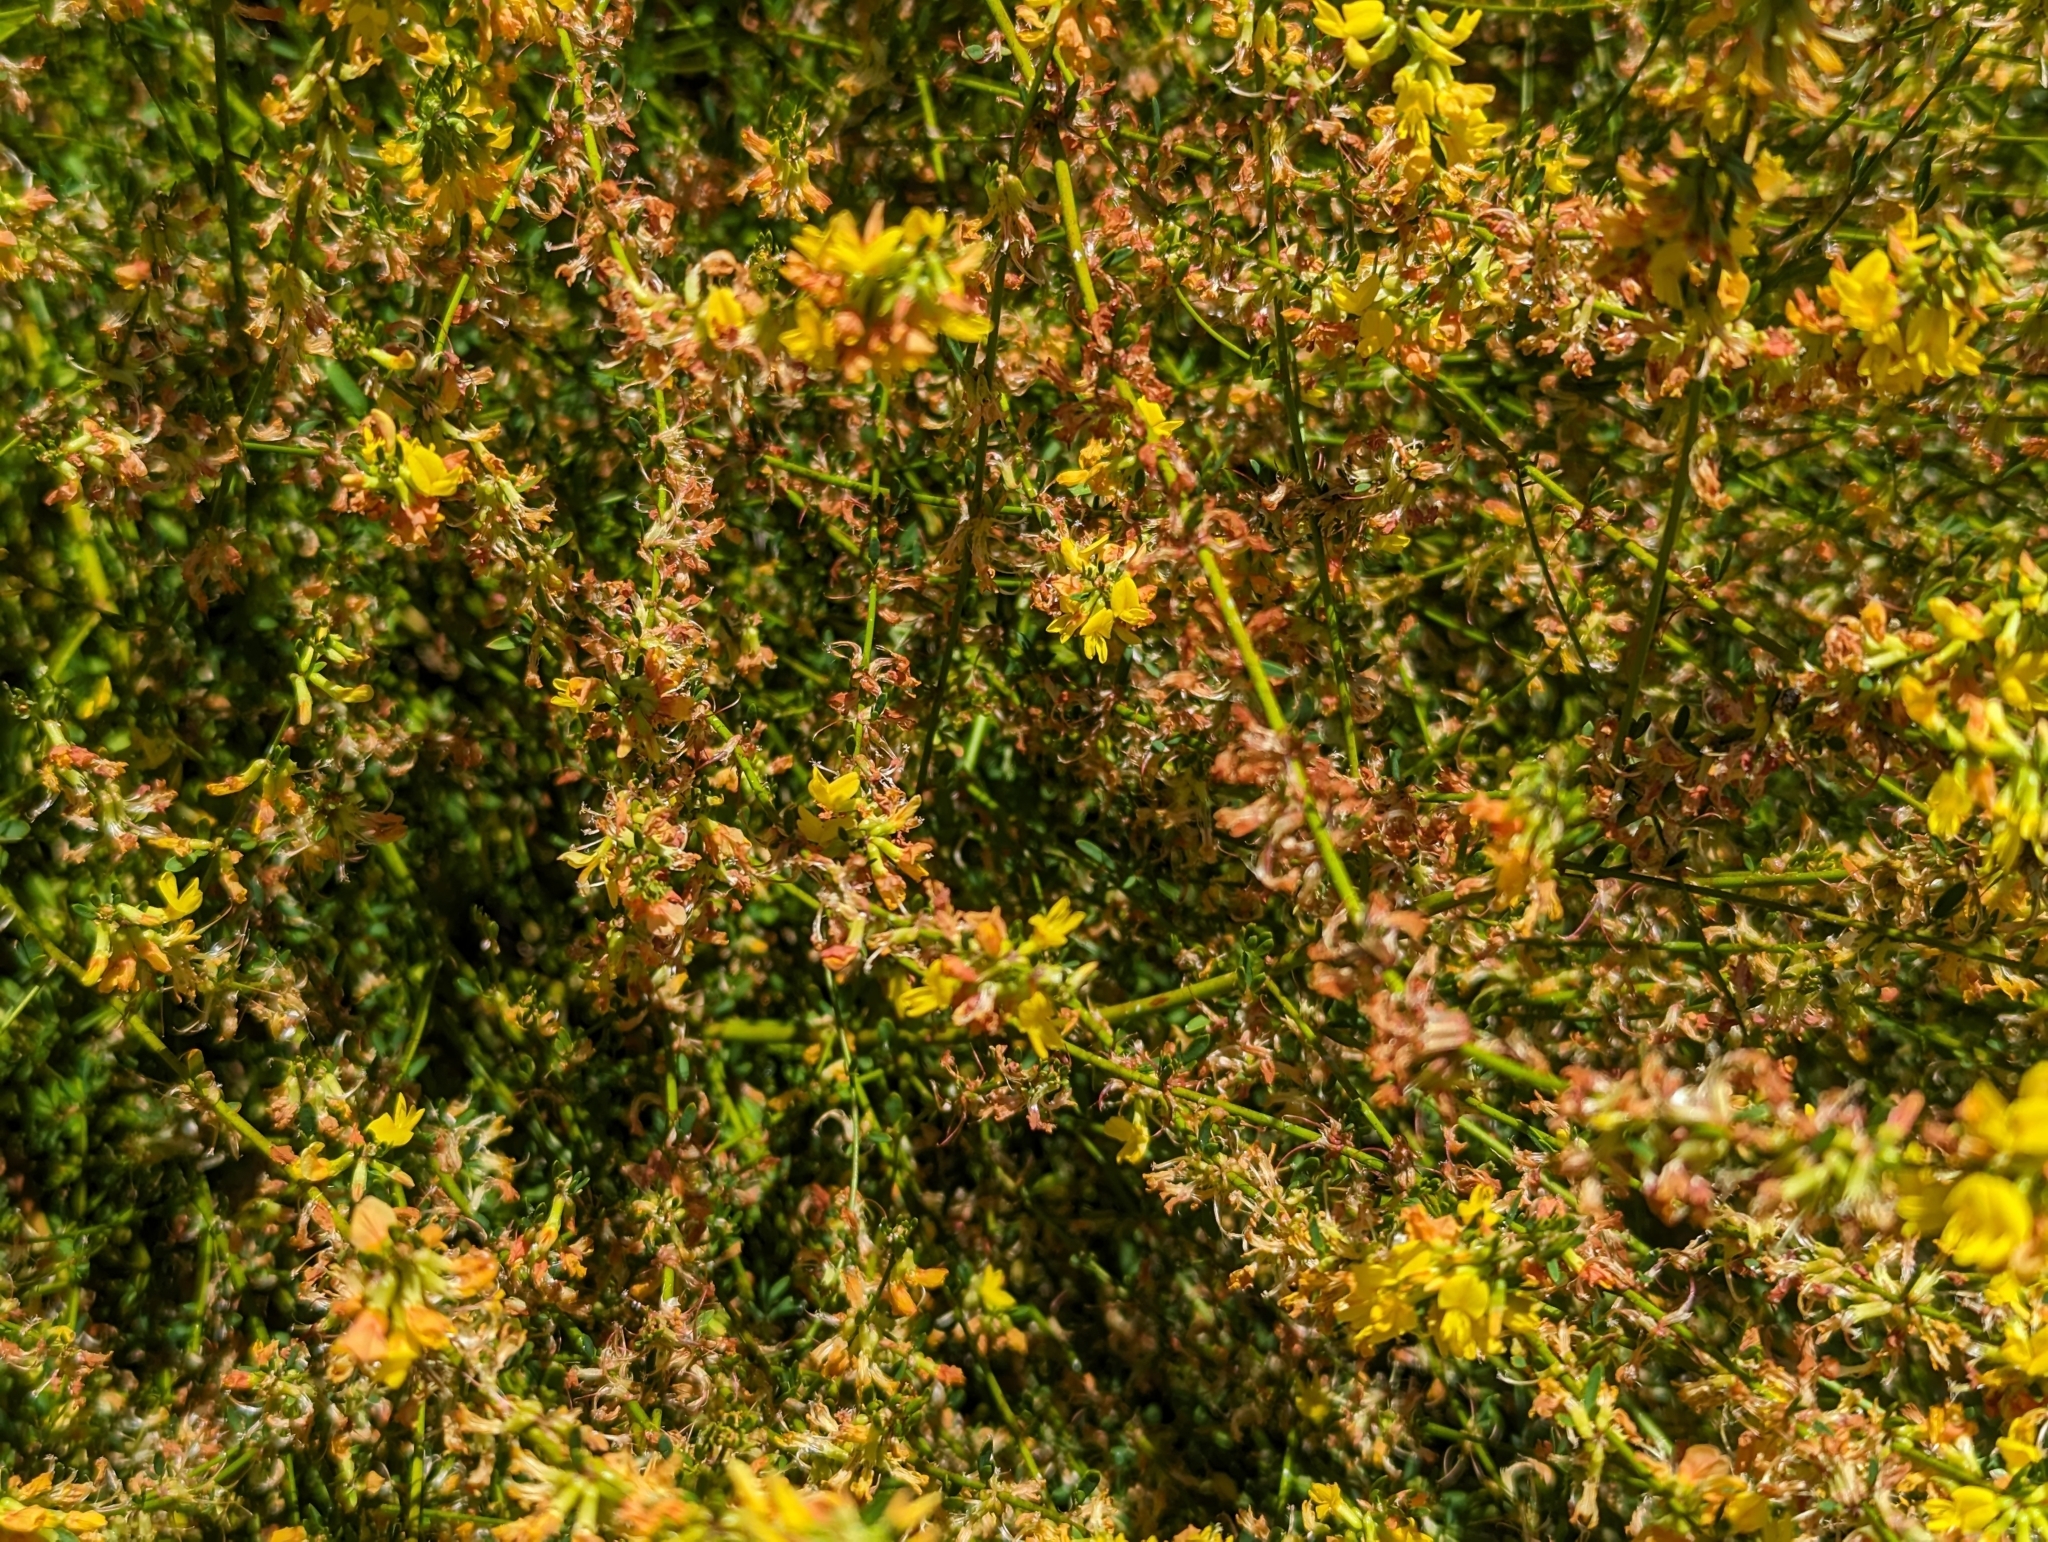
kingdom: Plantae
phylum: Tracheophyta
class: Magnoliopsida
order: Fabales
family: Fabaceae
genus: Acmispon
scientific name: Acmispon glaber
